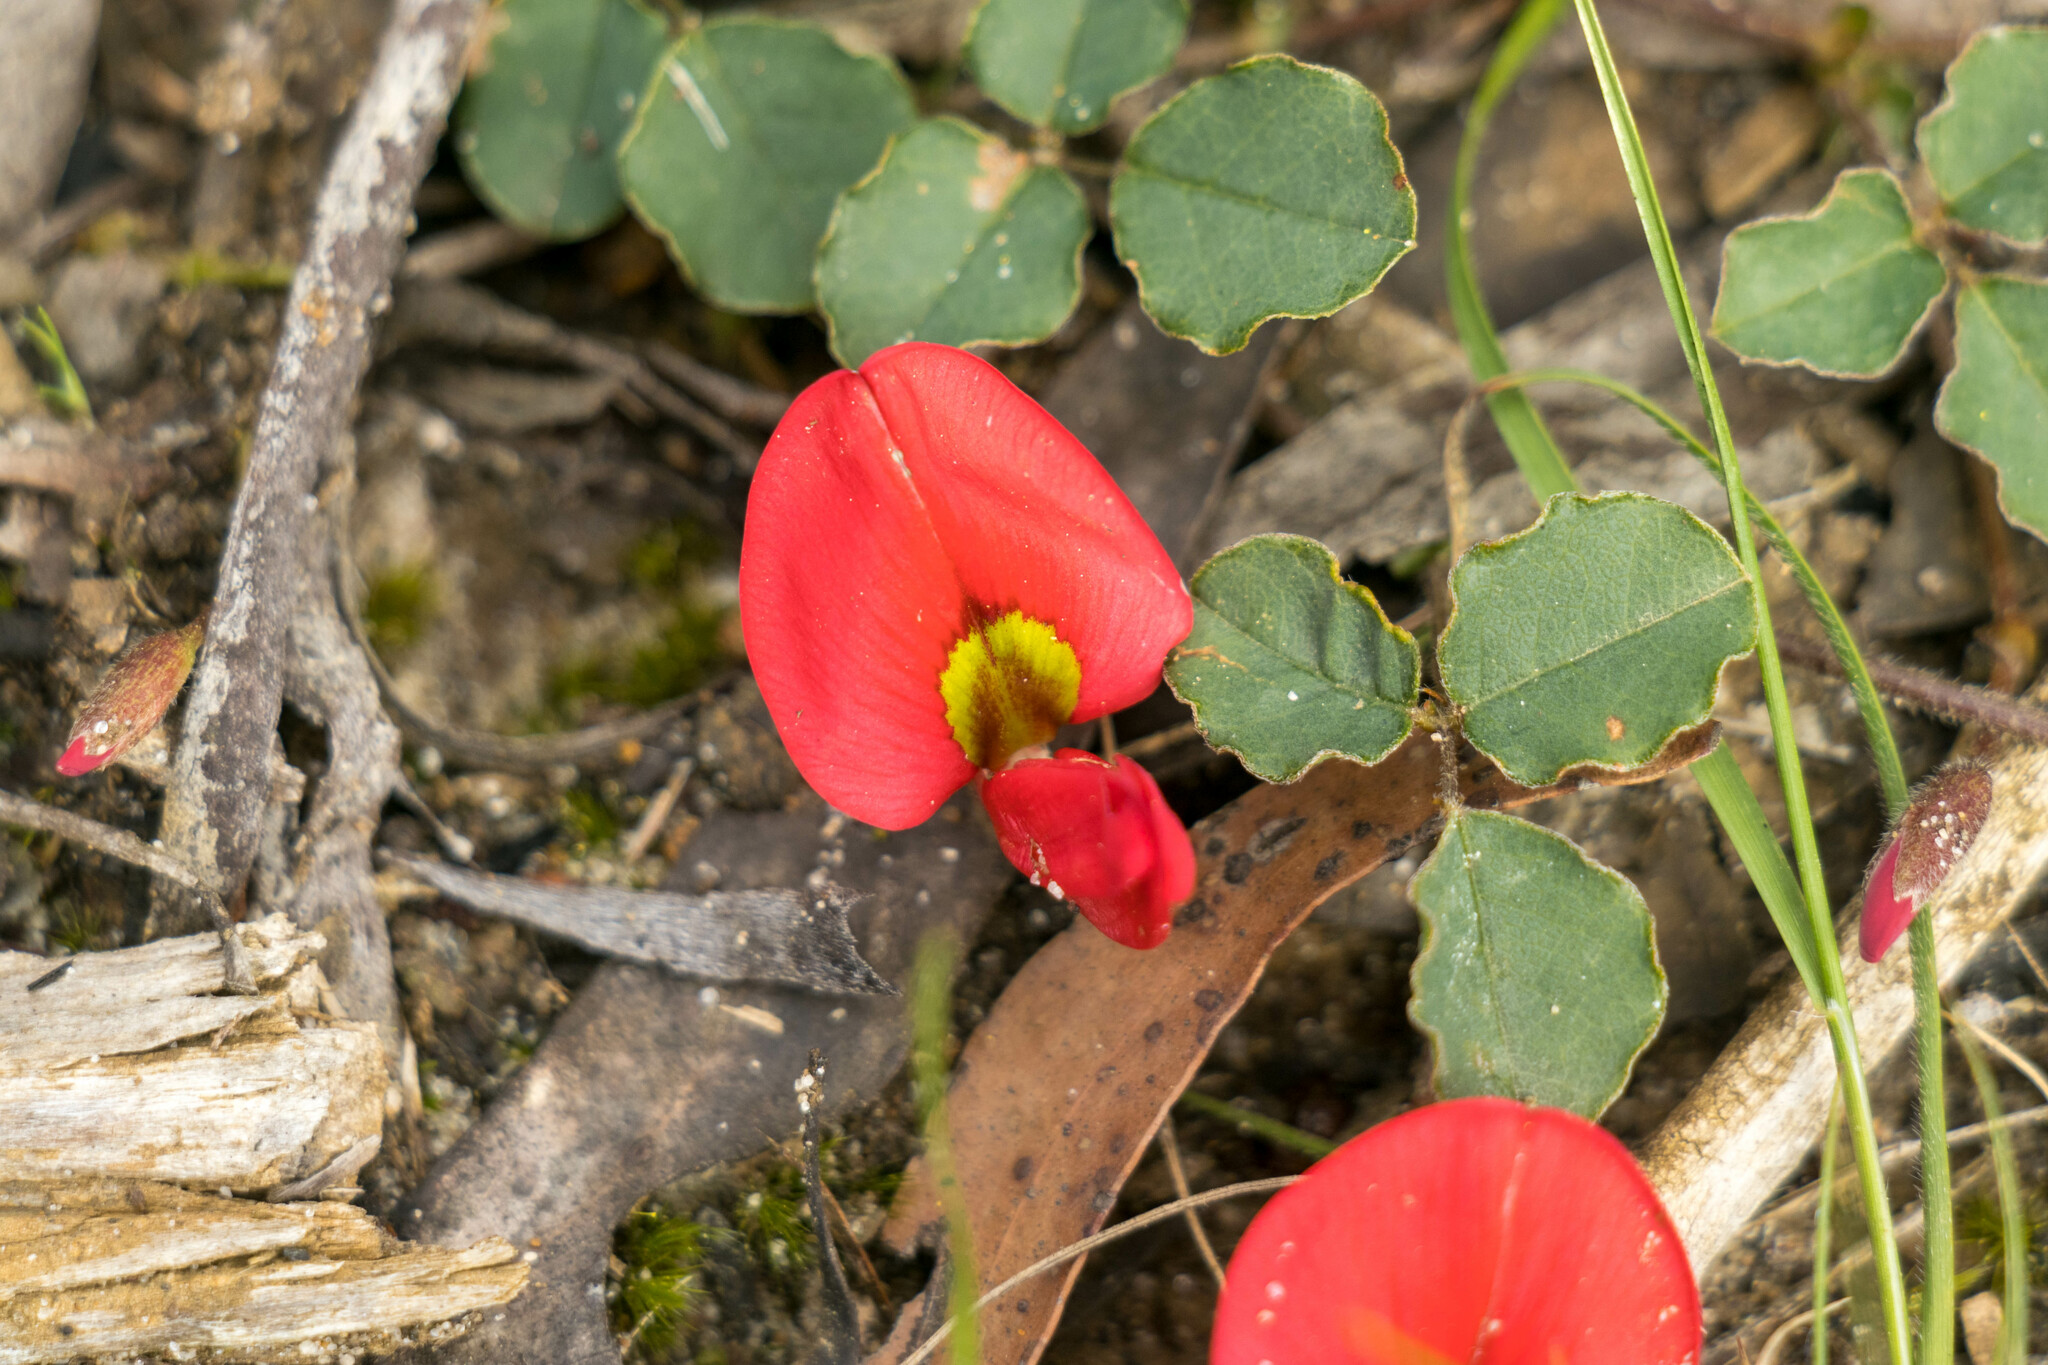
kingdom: Plantae
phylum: Tracheophyta
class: Magnoliopsida
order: Fabales
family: Fabaceae
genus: Kennedia
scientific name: Kennedia prostrata
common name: Running-postman
